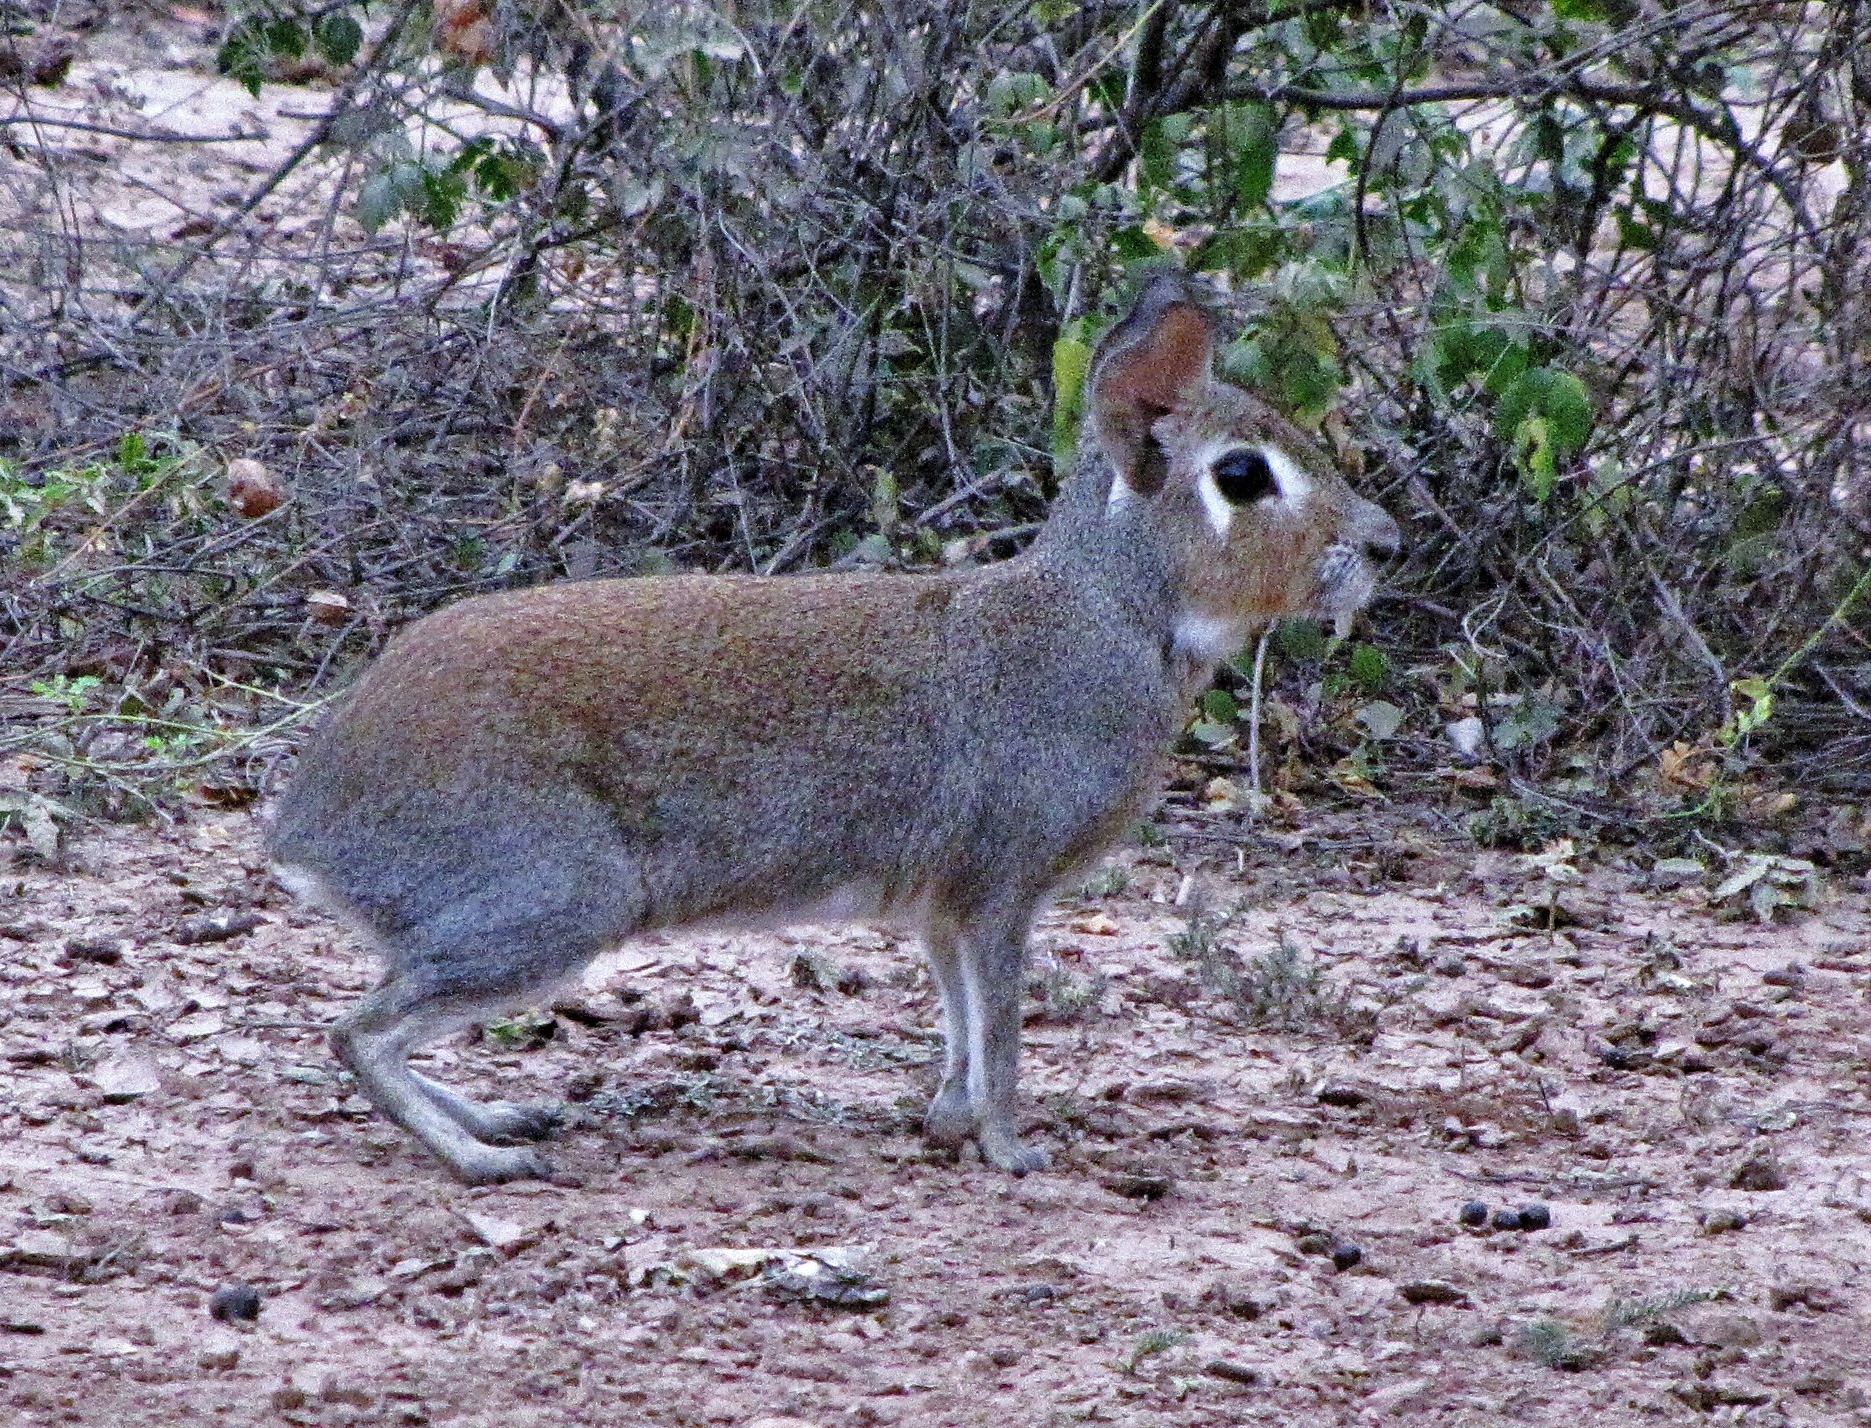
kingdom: Animalia
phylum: Chordata
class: Mammalia
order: Rodentia
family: Caviidae
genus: Dolichotis
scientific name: Dolichotis Pediolagus salinicola
